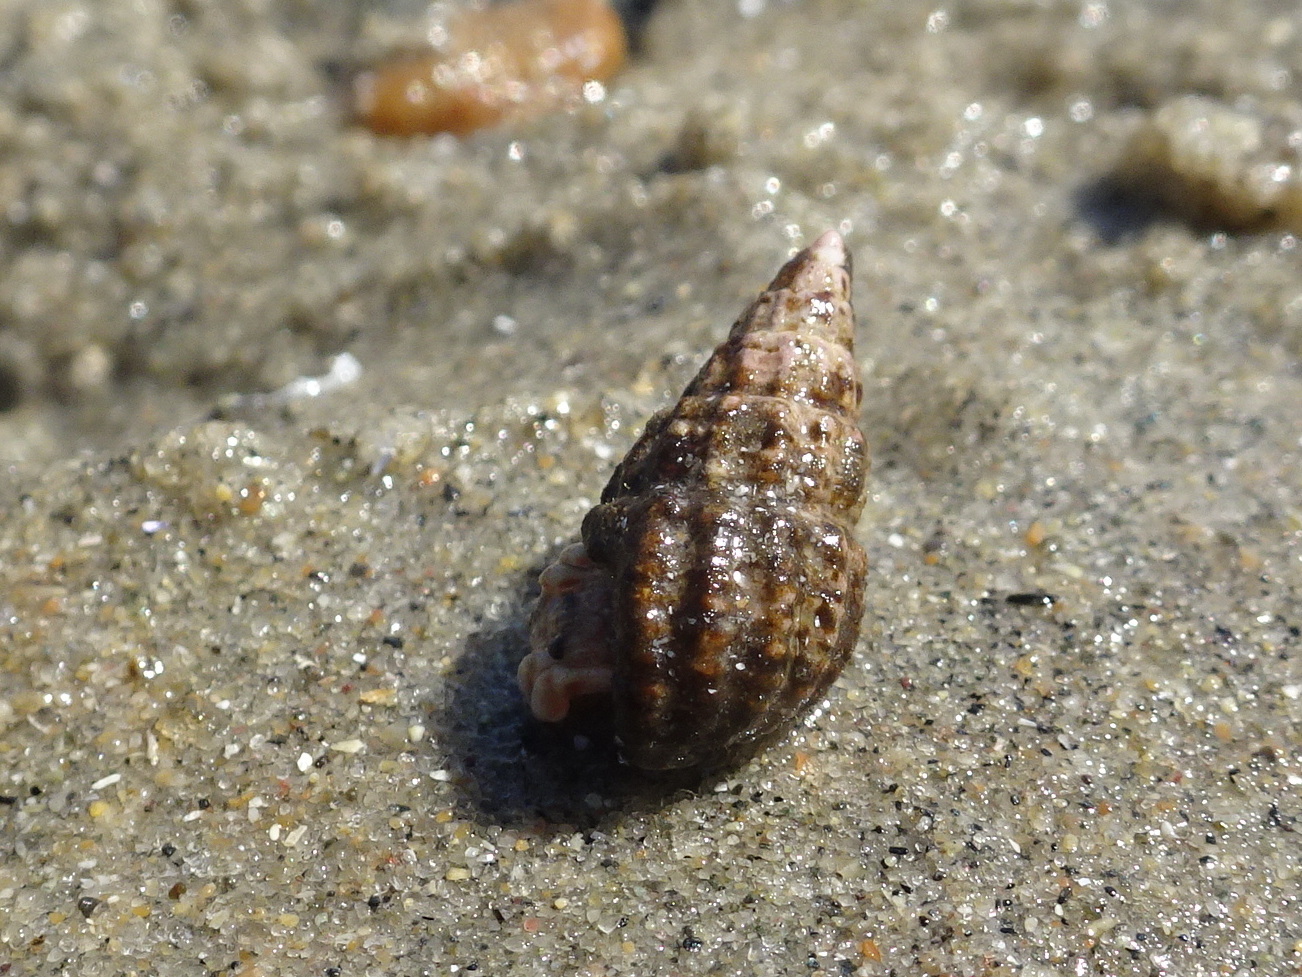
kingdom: Animalia
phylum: Mollusca
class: Gastropoda
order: Neogastropoda
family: Nassariidae
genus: Ilyanassa
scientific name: Ilyanassa trivittata
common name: Three-line mudsnail
